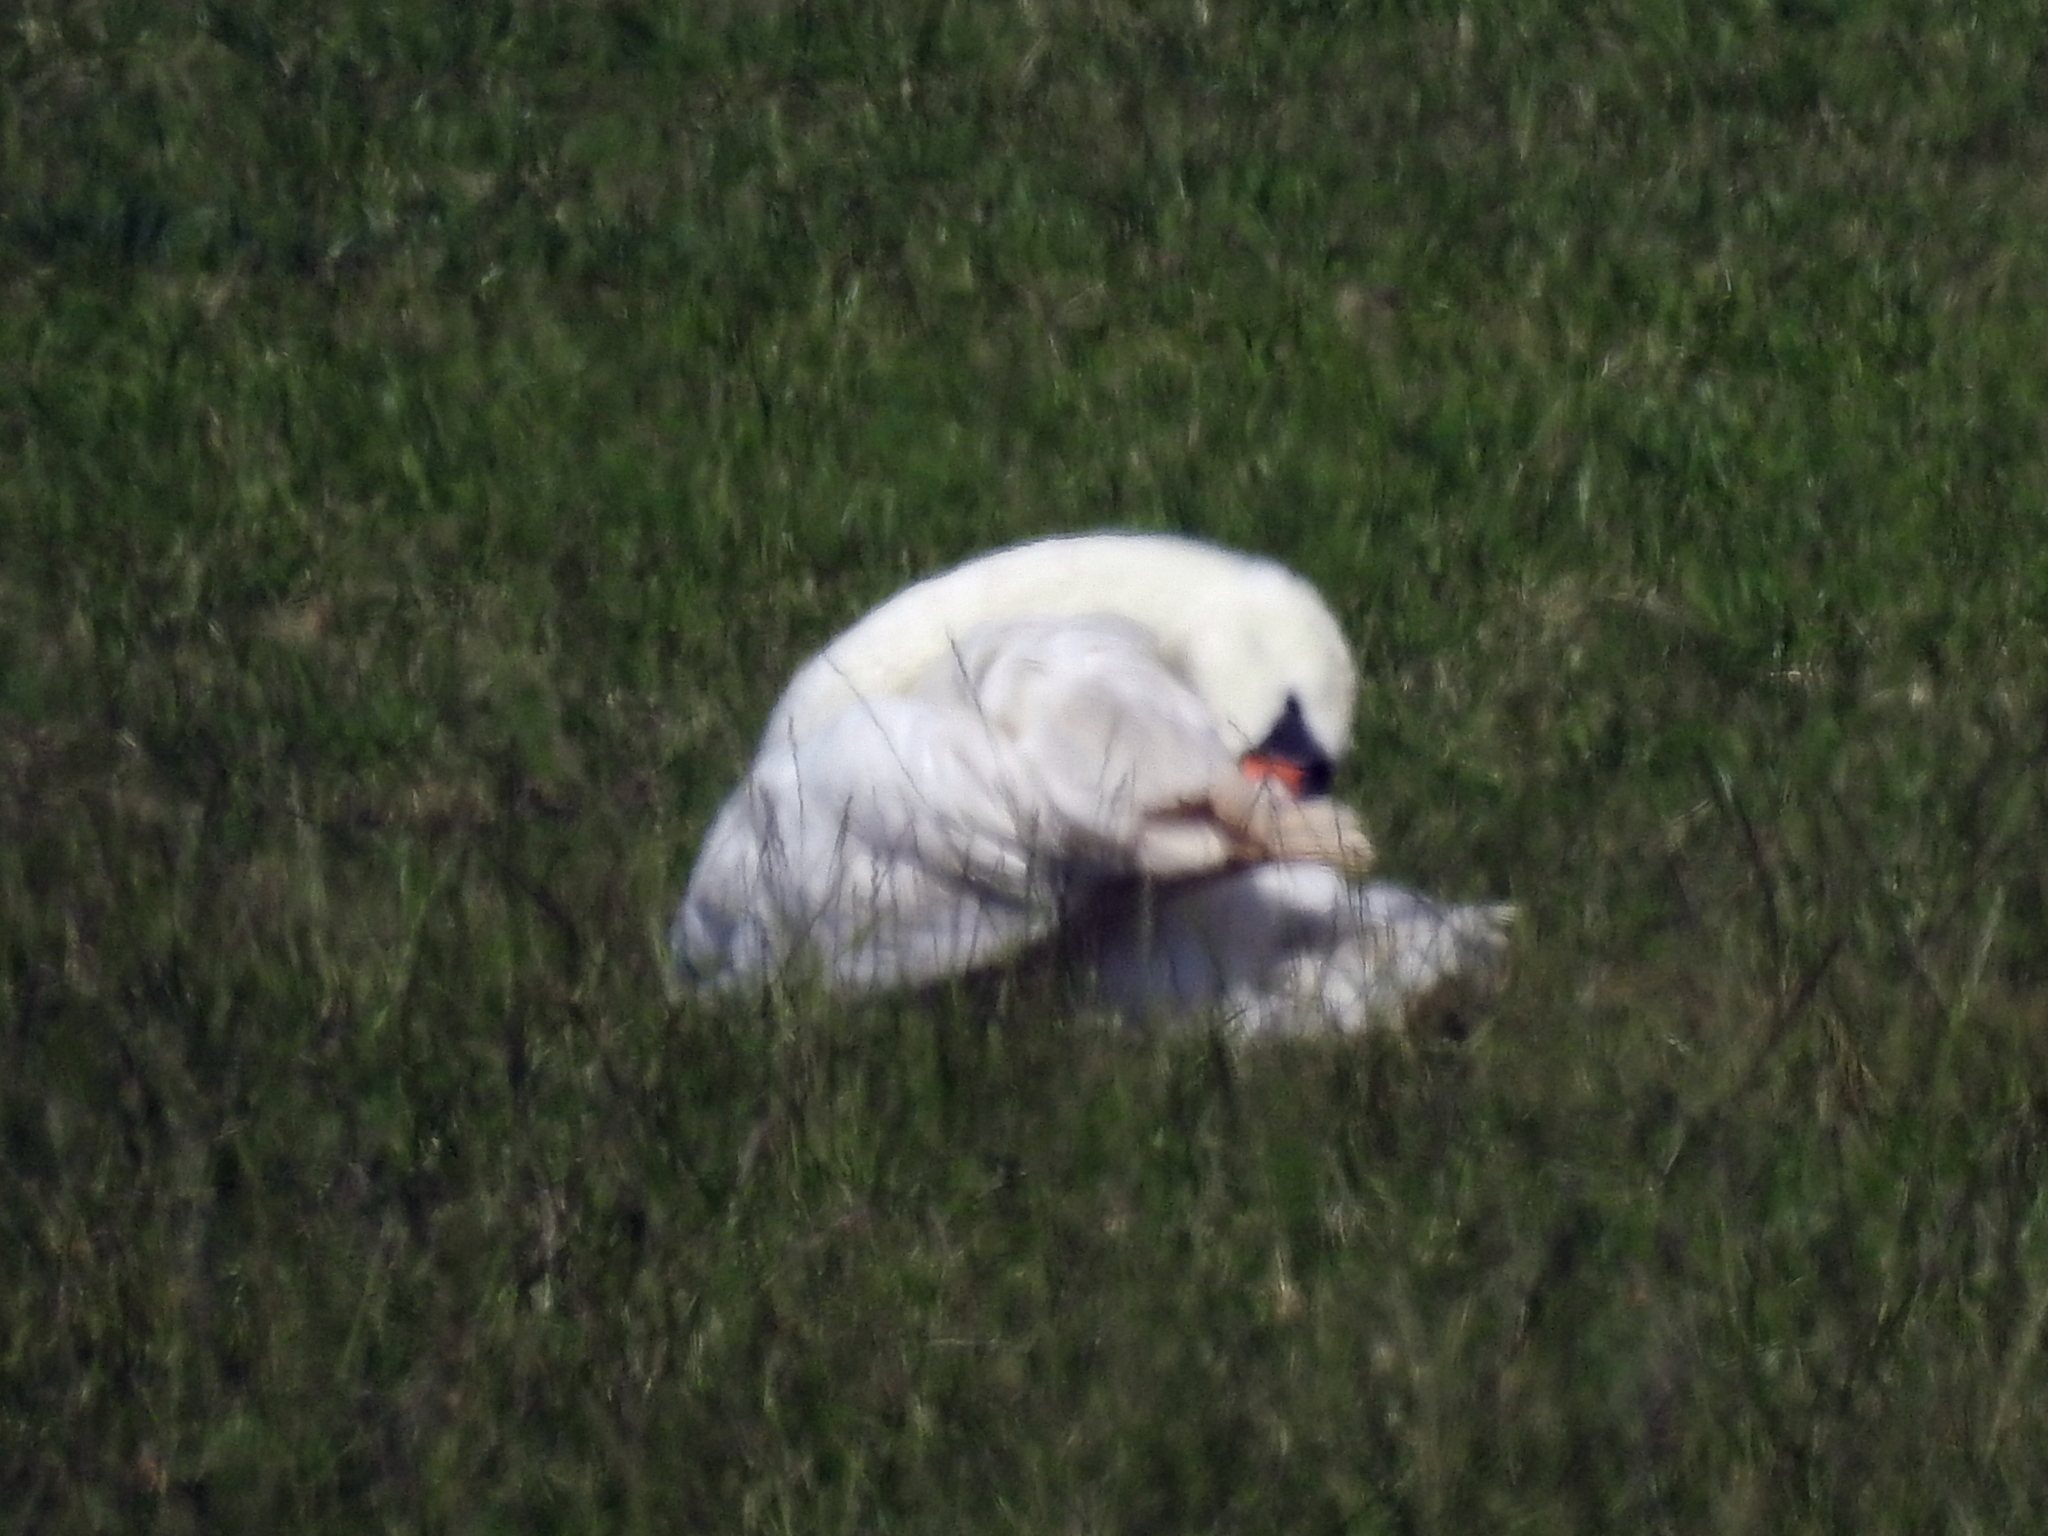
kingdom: Animalia
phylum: Chordata
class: Aves
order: Anseriformes
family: Anatidae
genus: Cygnus
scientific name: Cygnus olor
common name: Mute swan
